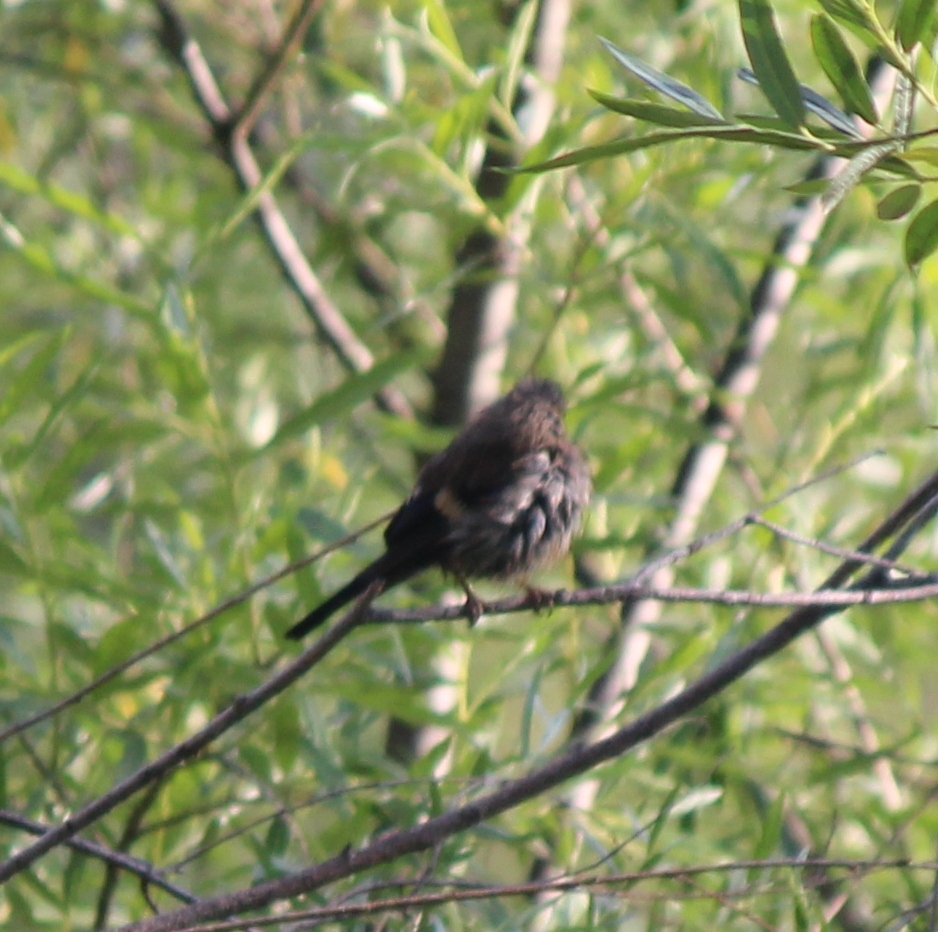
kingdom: Animalia
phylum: Chordata
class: Aves
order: Passeriformes
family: Fringillidae
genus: Carpodacus
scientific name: Carpodacus sibiricus
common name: Long-tailed rosefinch
